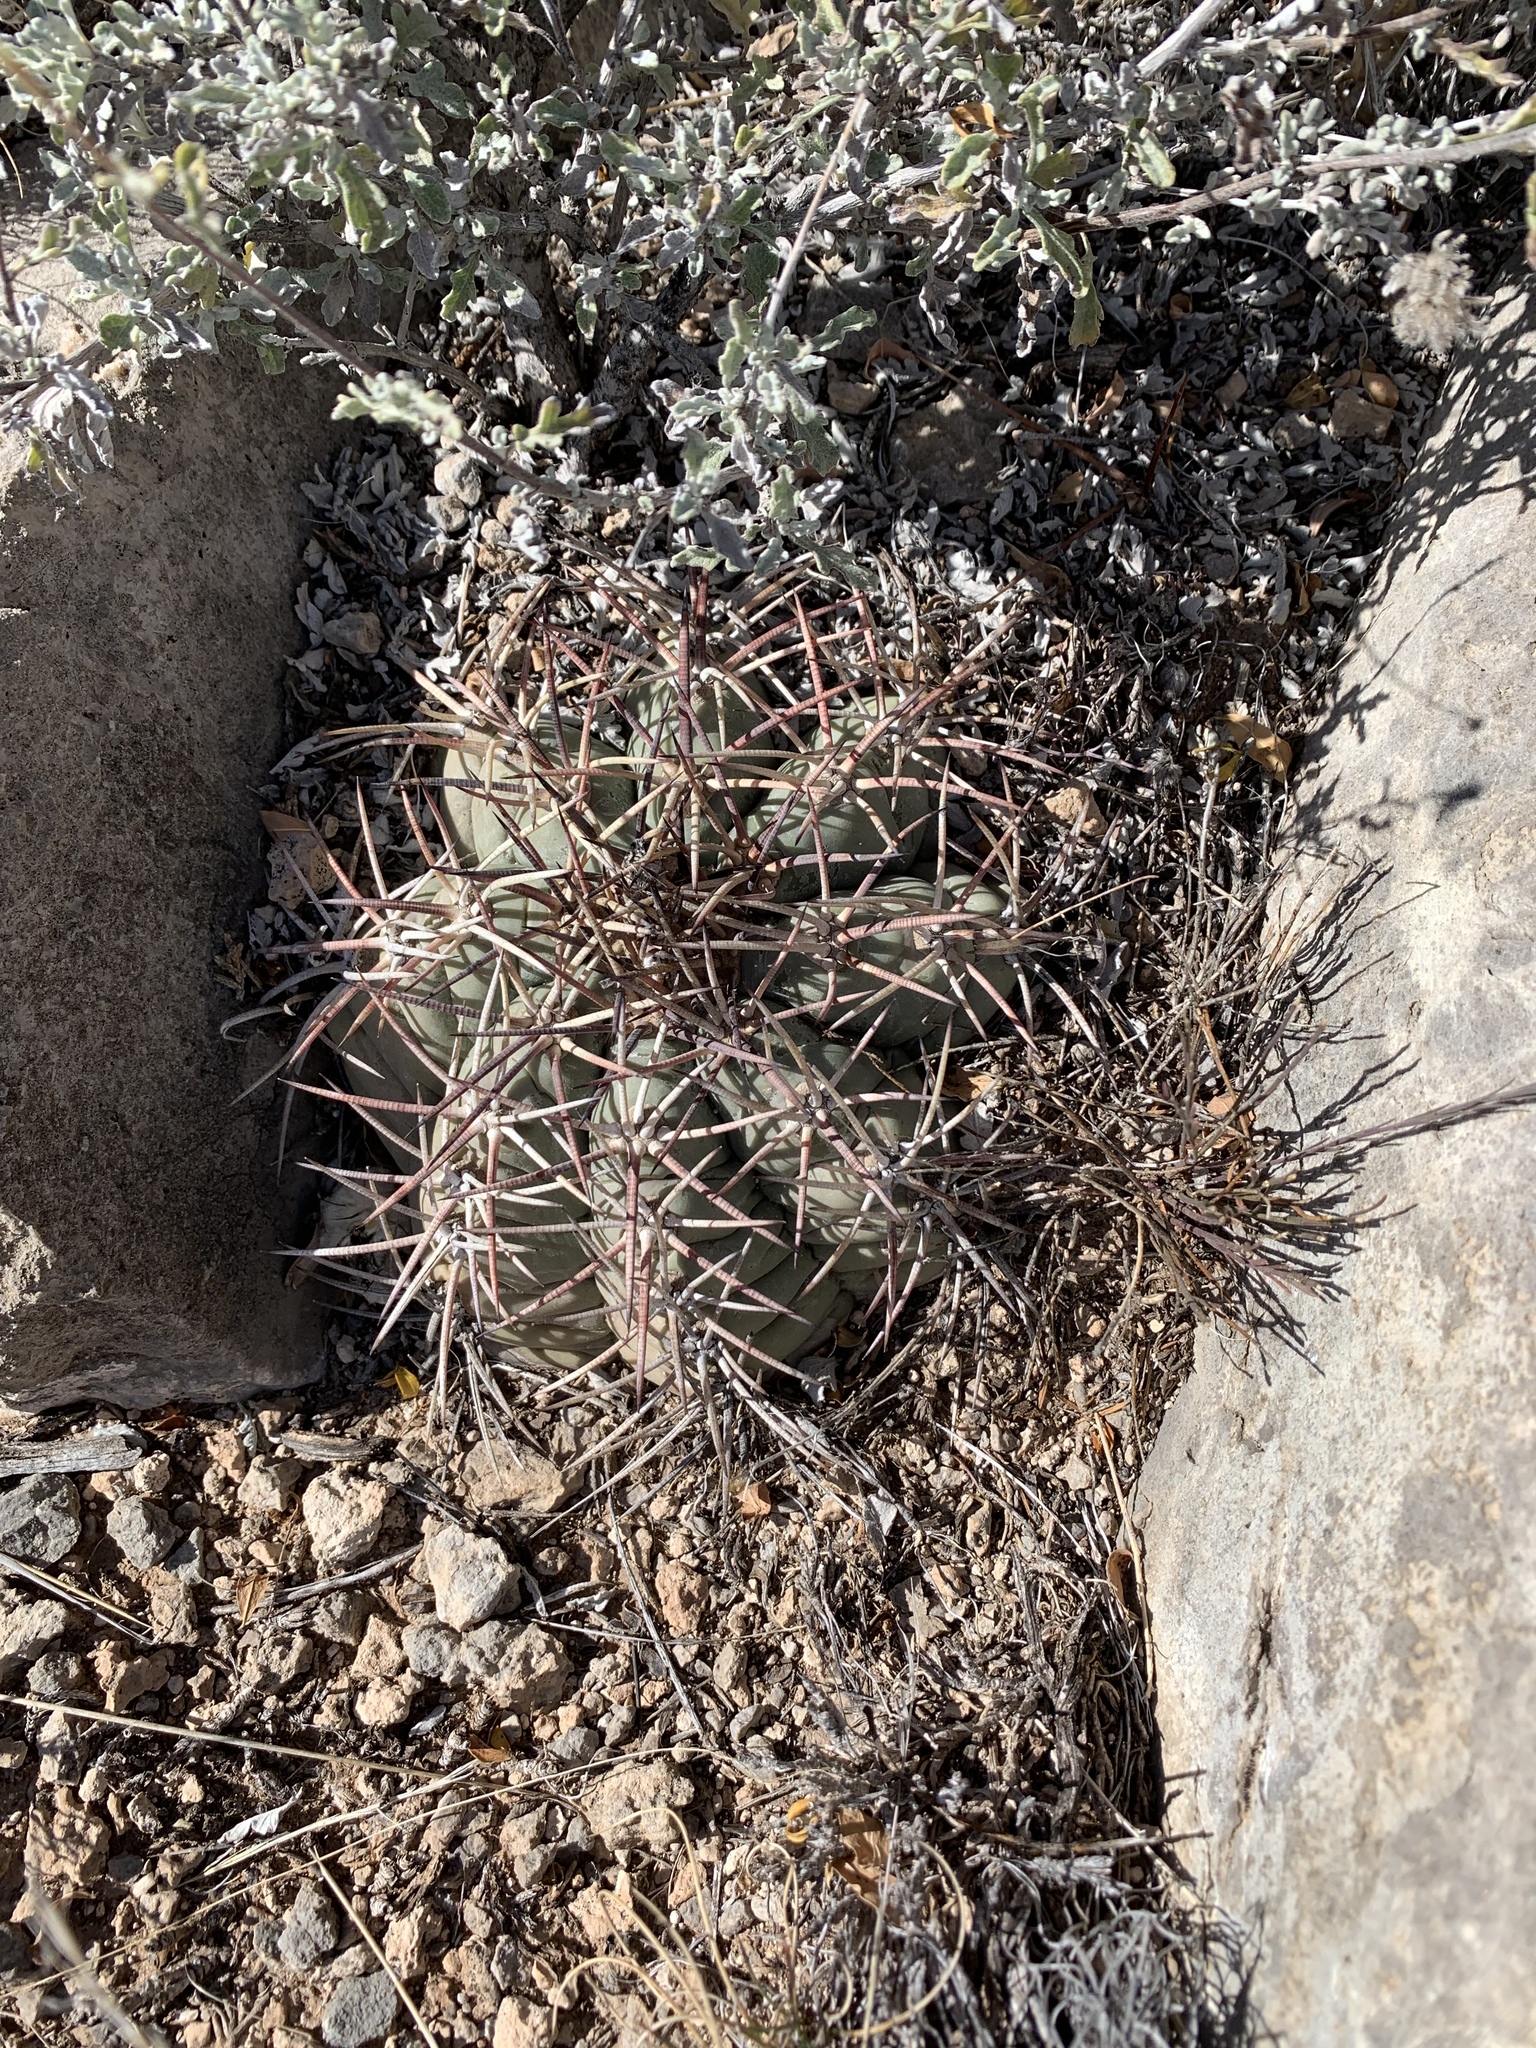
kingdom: Plantae
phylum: Tracheophyta
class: Magnoliopsida
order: Caryophyllales
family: Cactaceae
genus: Echinocactus
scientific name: Echinocactus horizonthalonius
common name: Devilshead
